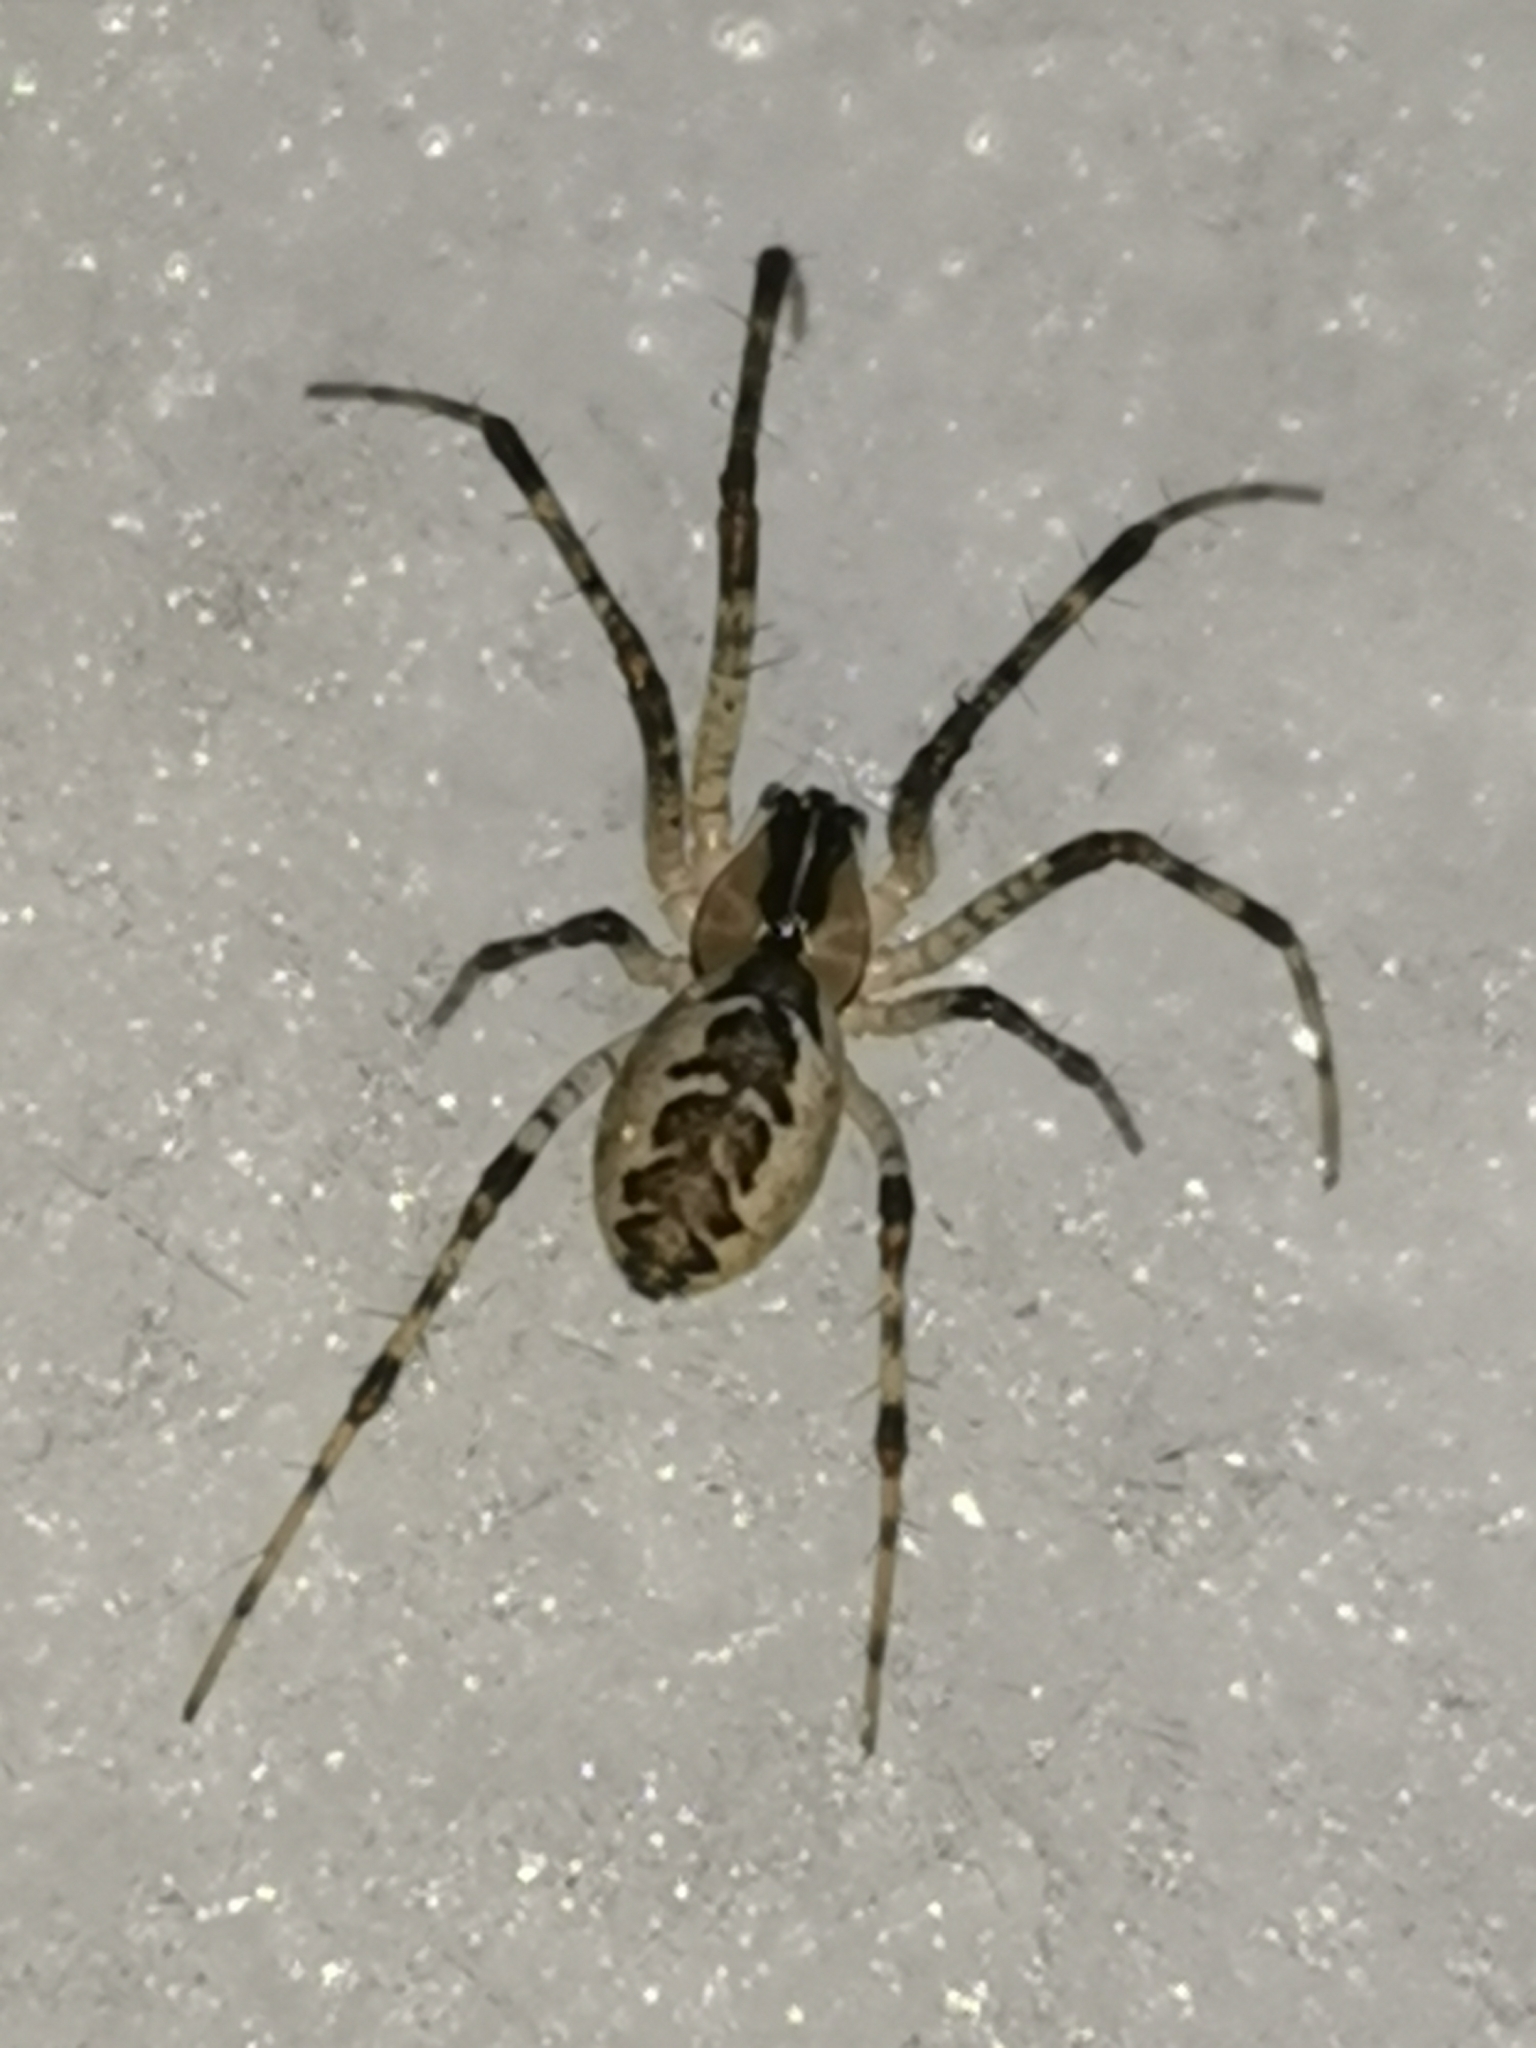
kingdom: Animalia
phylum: Arthropoda
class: Arachnida
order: Araneae
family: Linyphiidae
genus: Pityohyphantes
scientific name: Pityohyphantes phrygianus
